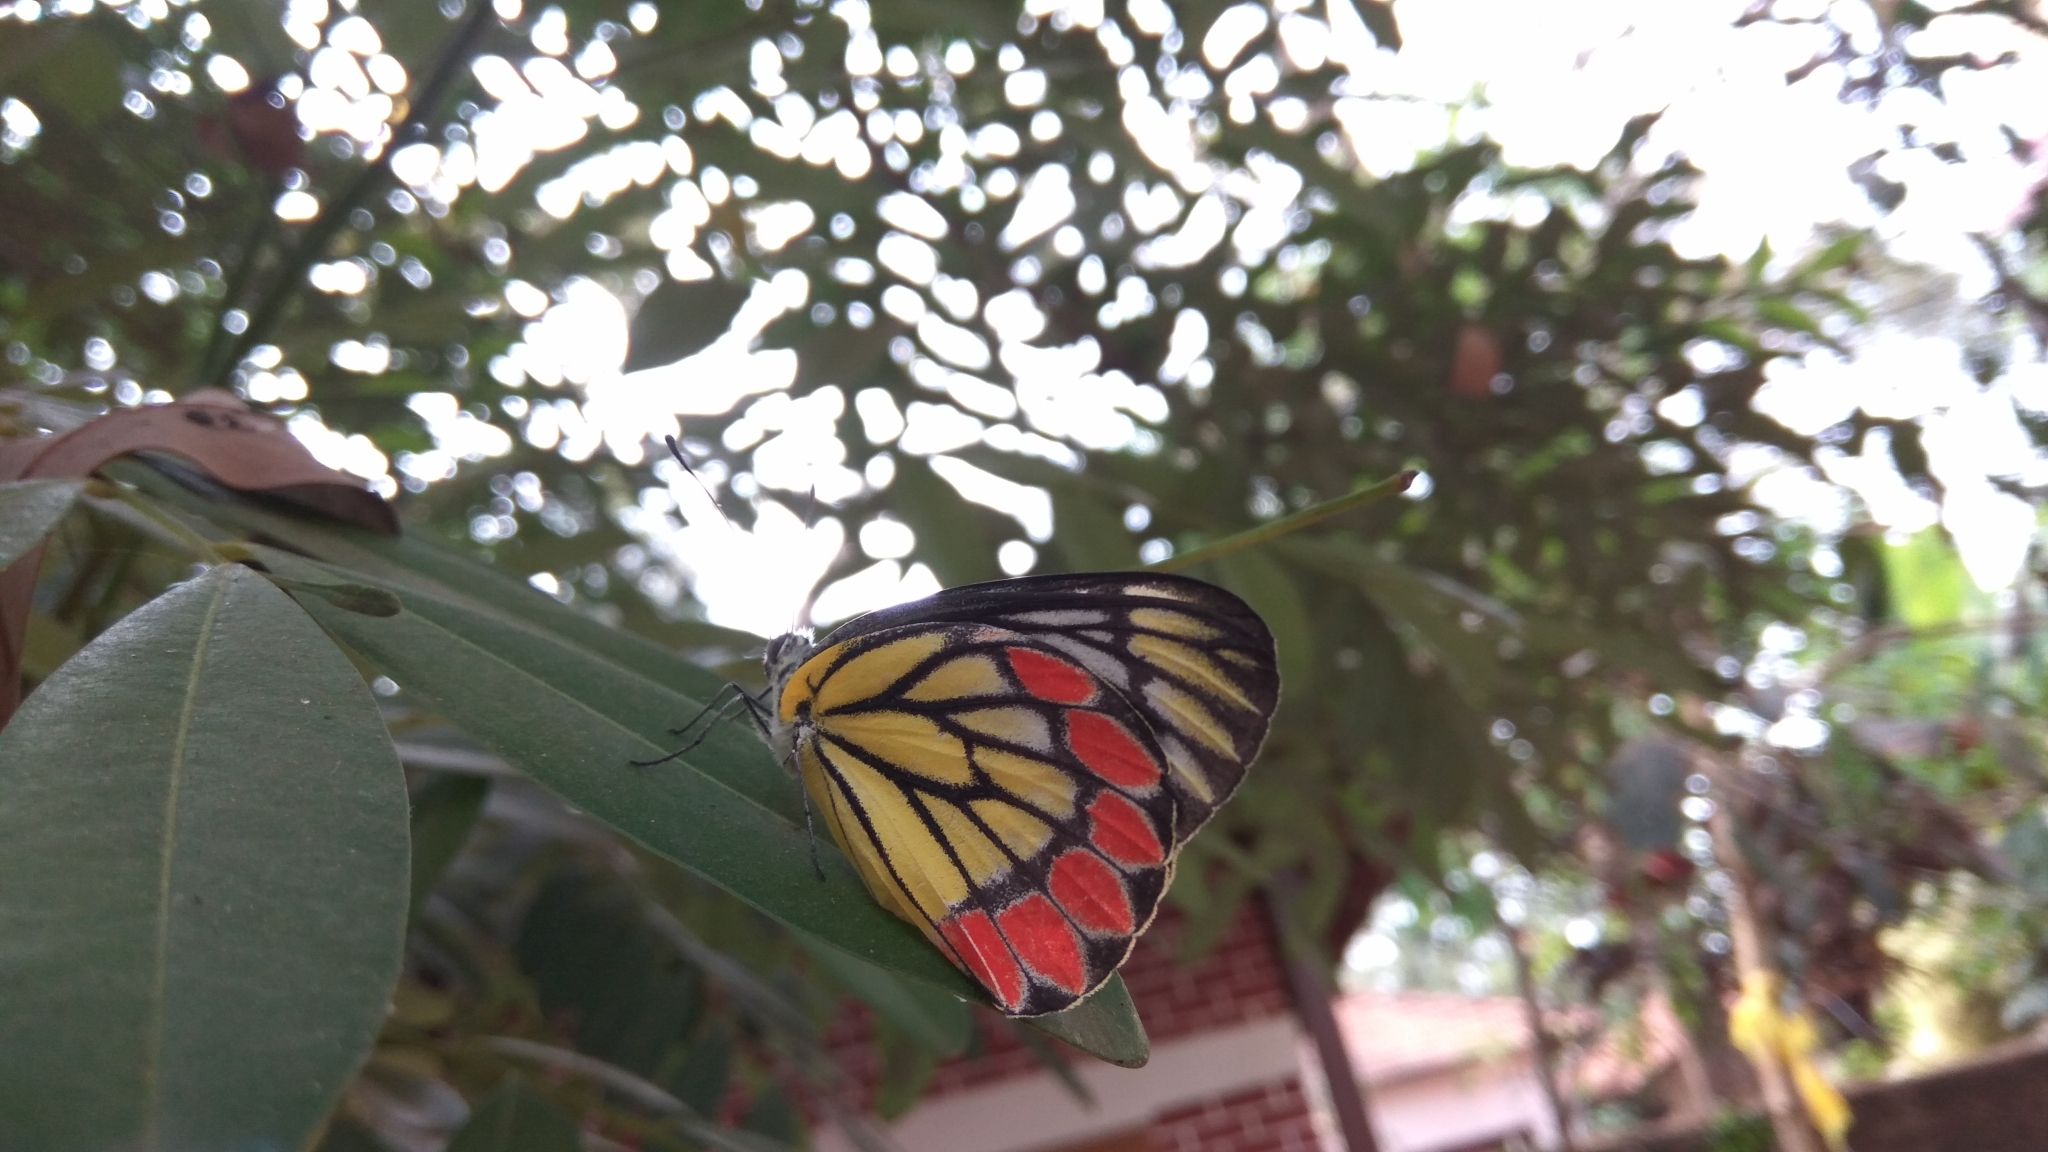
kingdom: Animalia
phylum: Arthropoda
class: Insecta
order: Lepidoptera
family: Pieridae
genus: Delias
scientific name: Delias eucharis
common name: Common jezebel
